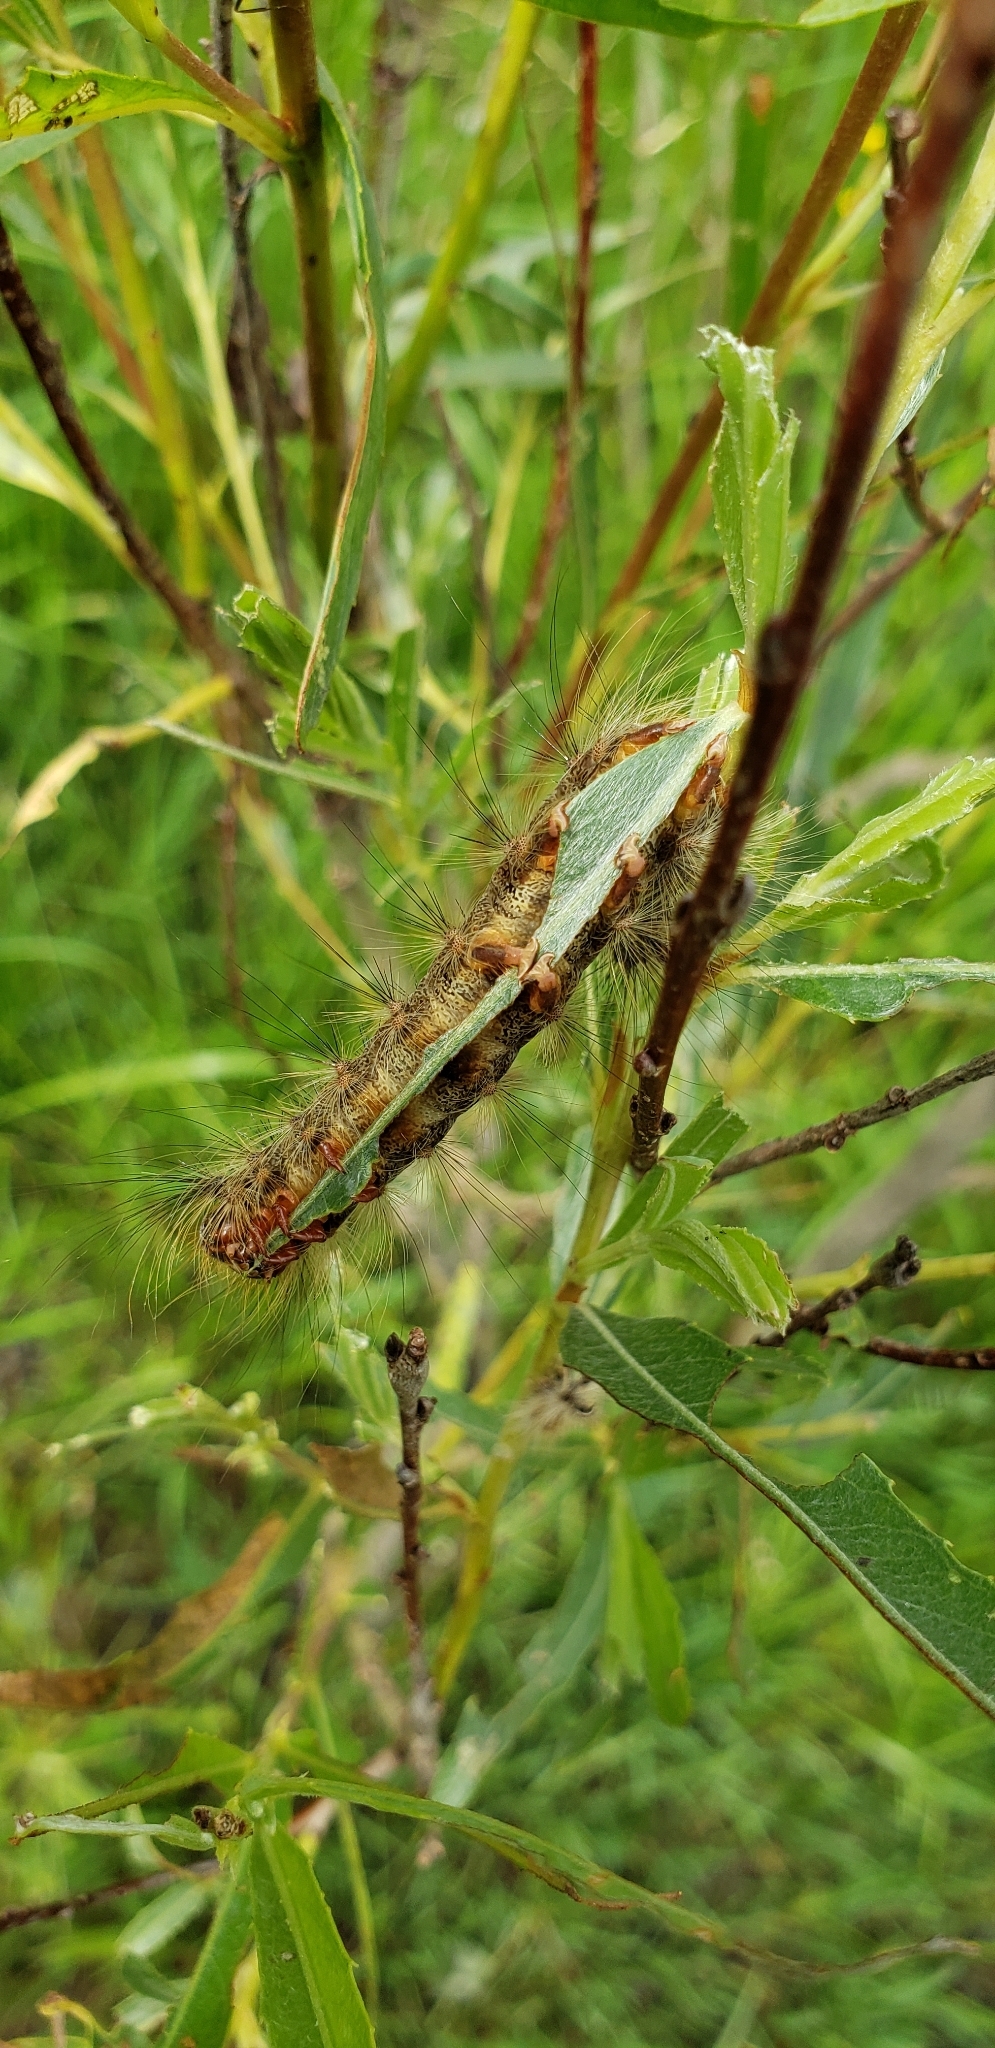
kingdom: Animalia
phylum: Arthropoda
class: Insecta
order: Lepidoptera
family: Erebidae
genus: Lymantria
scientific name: Lymantria dispar
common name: Gypsy moth
